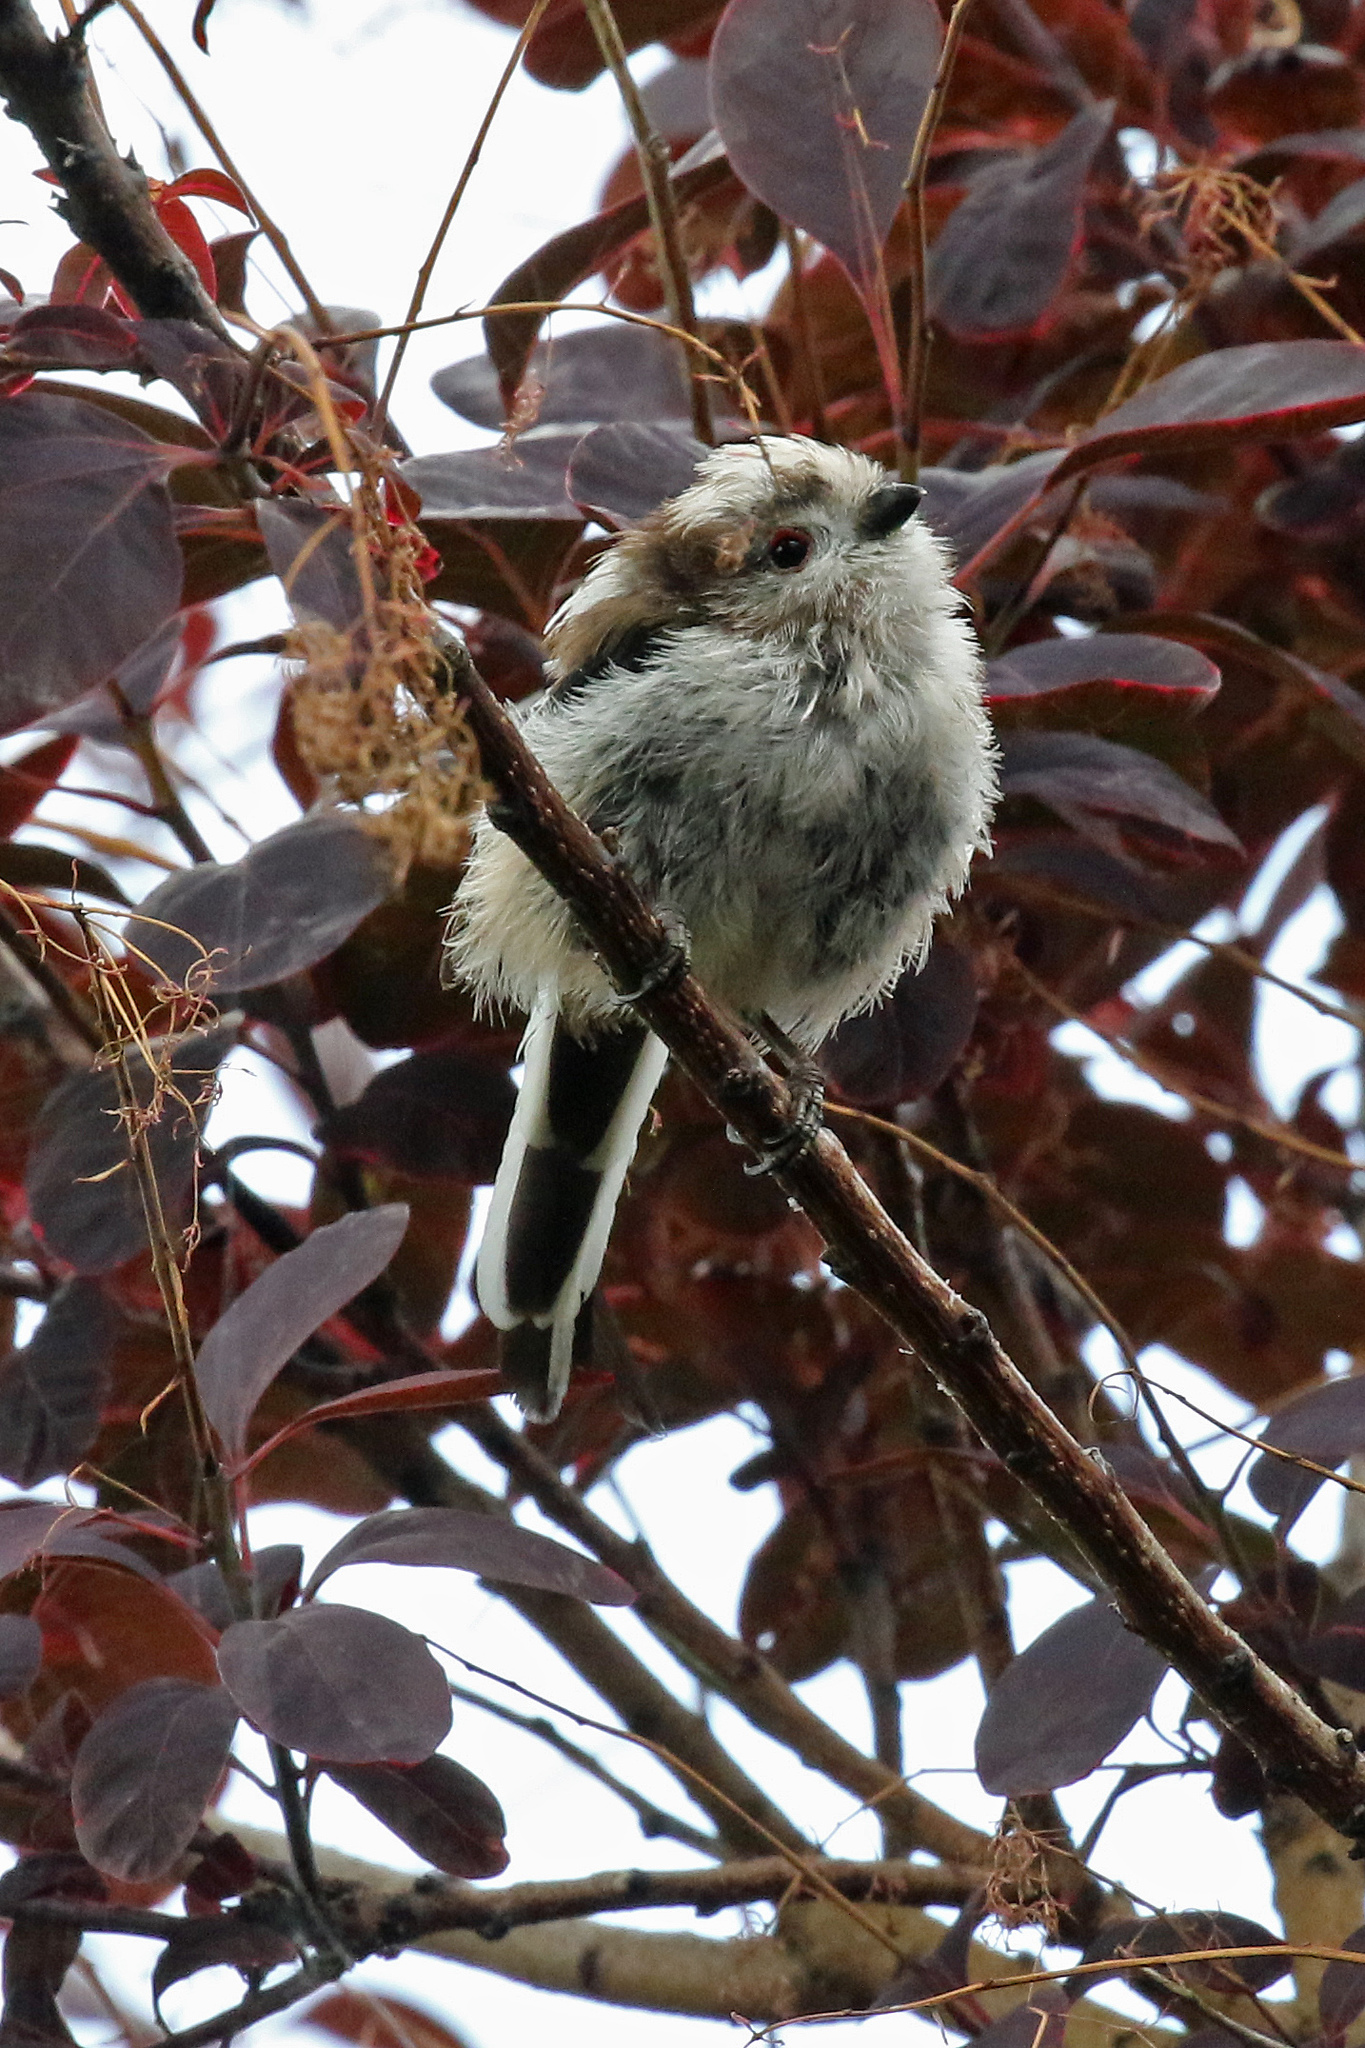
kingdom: Animalia
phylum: Chordata
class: Aves
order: Passeriformes
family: Aegithalidae
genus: Aegithalos
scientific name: Aegithalos caudatus
